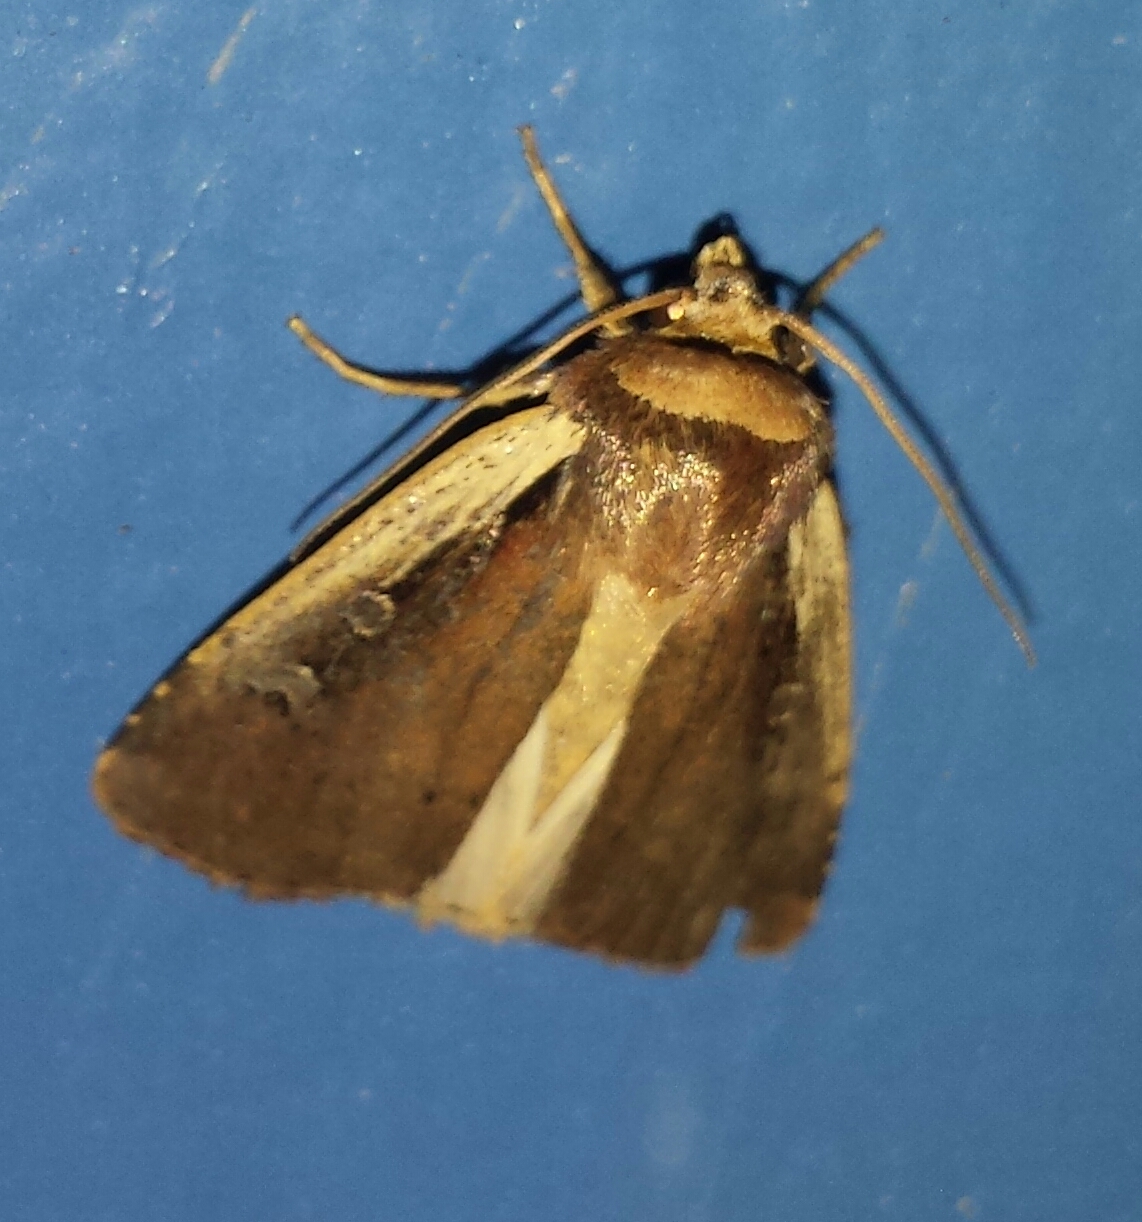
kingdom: Animalia
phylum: Arthropoda
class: Insecta
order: Lepidoptera
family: Noctuidae
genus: Ochropleura
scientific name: Ochropleura implecta
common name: Flame-shouldered dart
